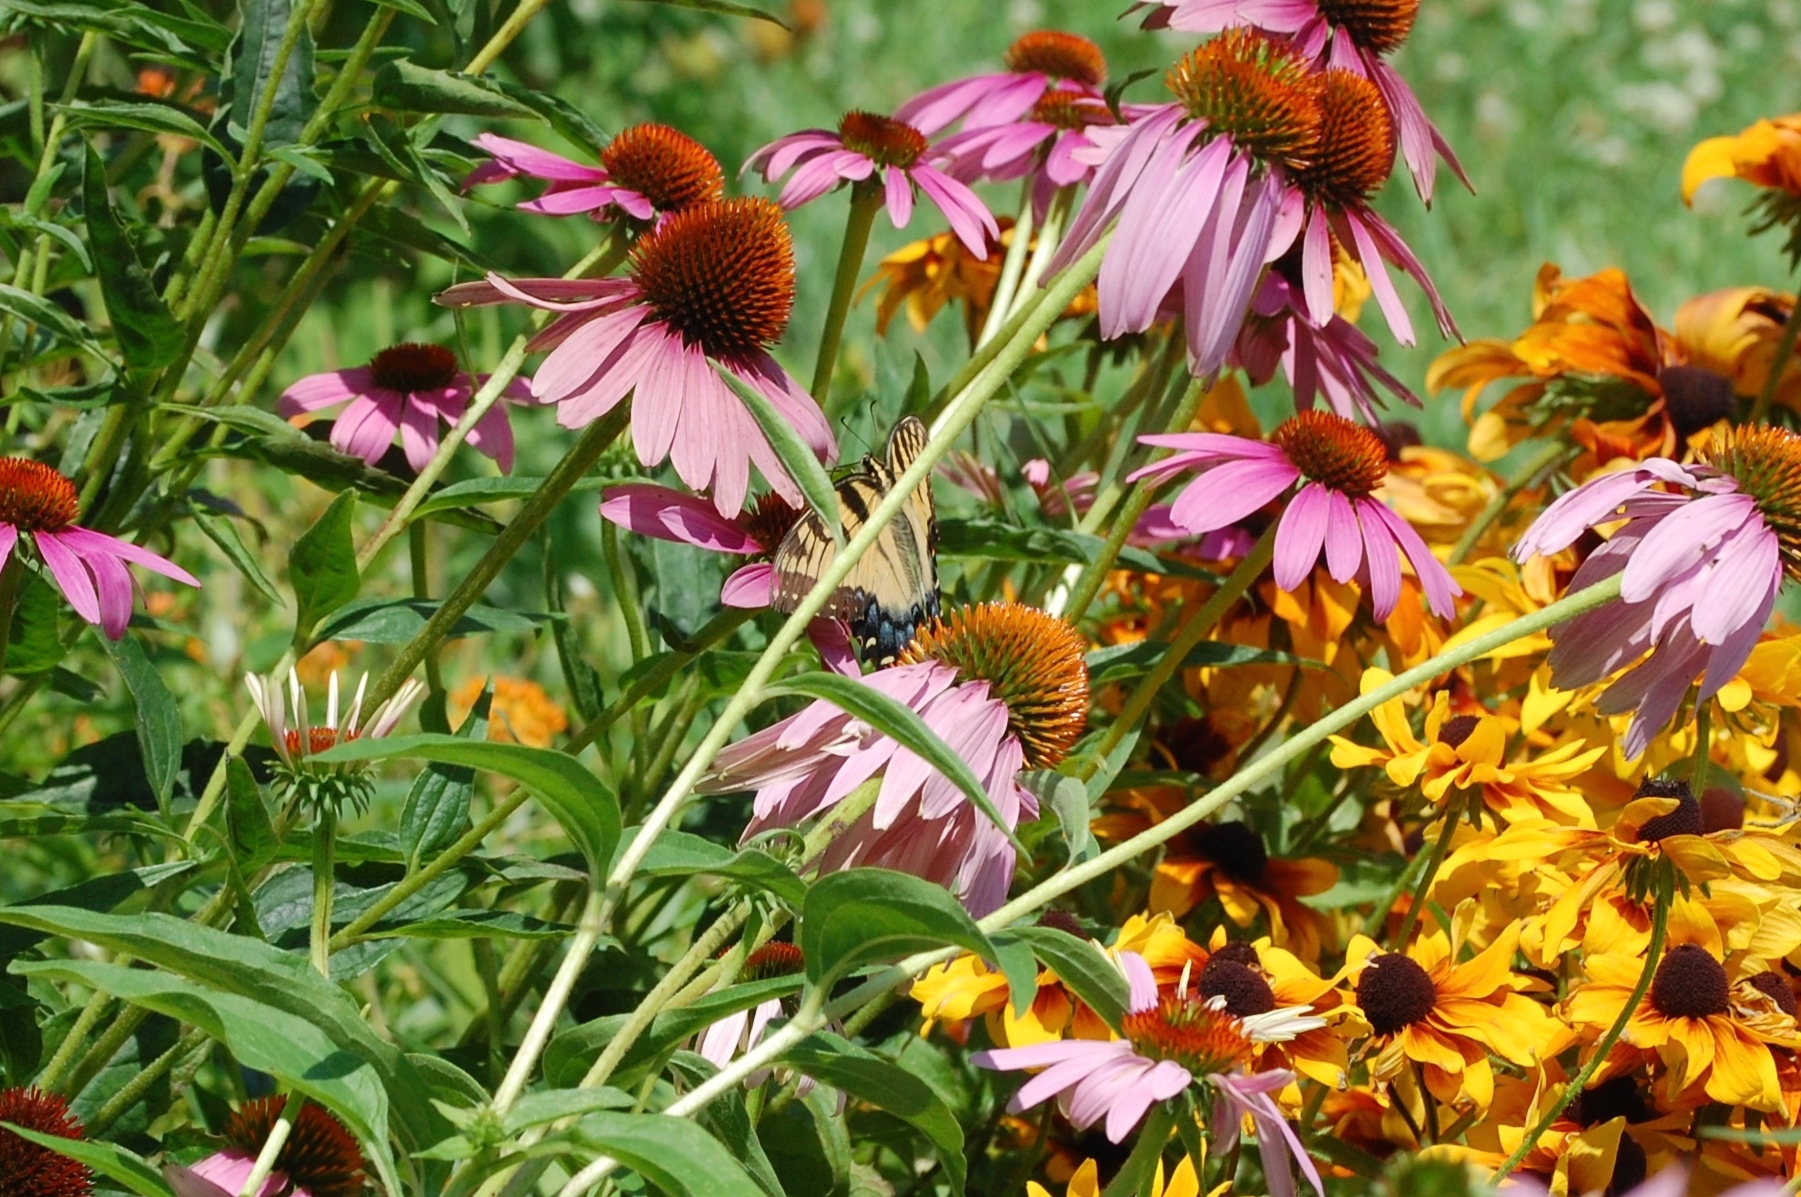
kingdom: Animalia
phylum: Arthropoda
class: Insecta
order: Lepidoptera
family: Papilionidae
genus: Papilio
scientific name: Papilio glaucus
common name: Tiger swallowtail
